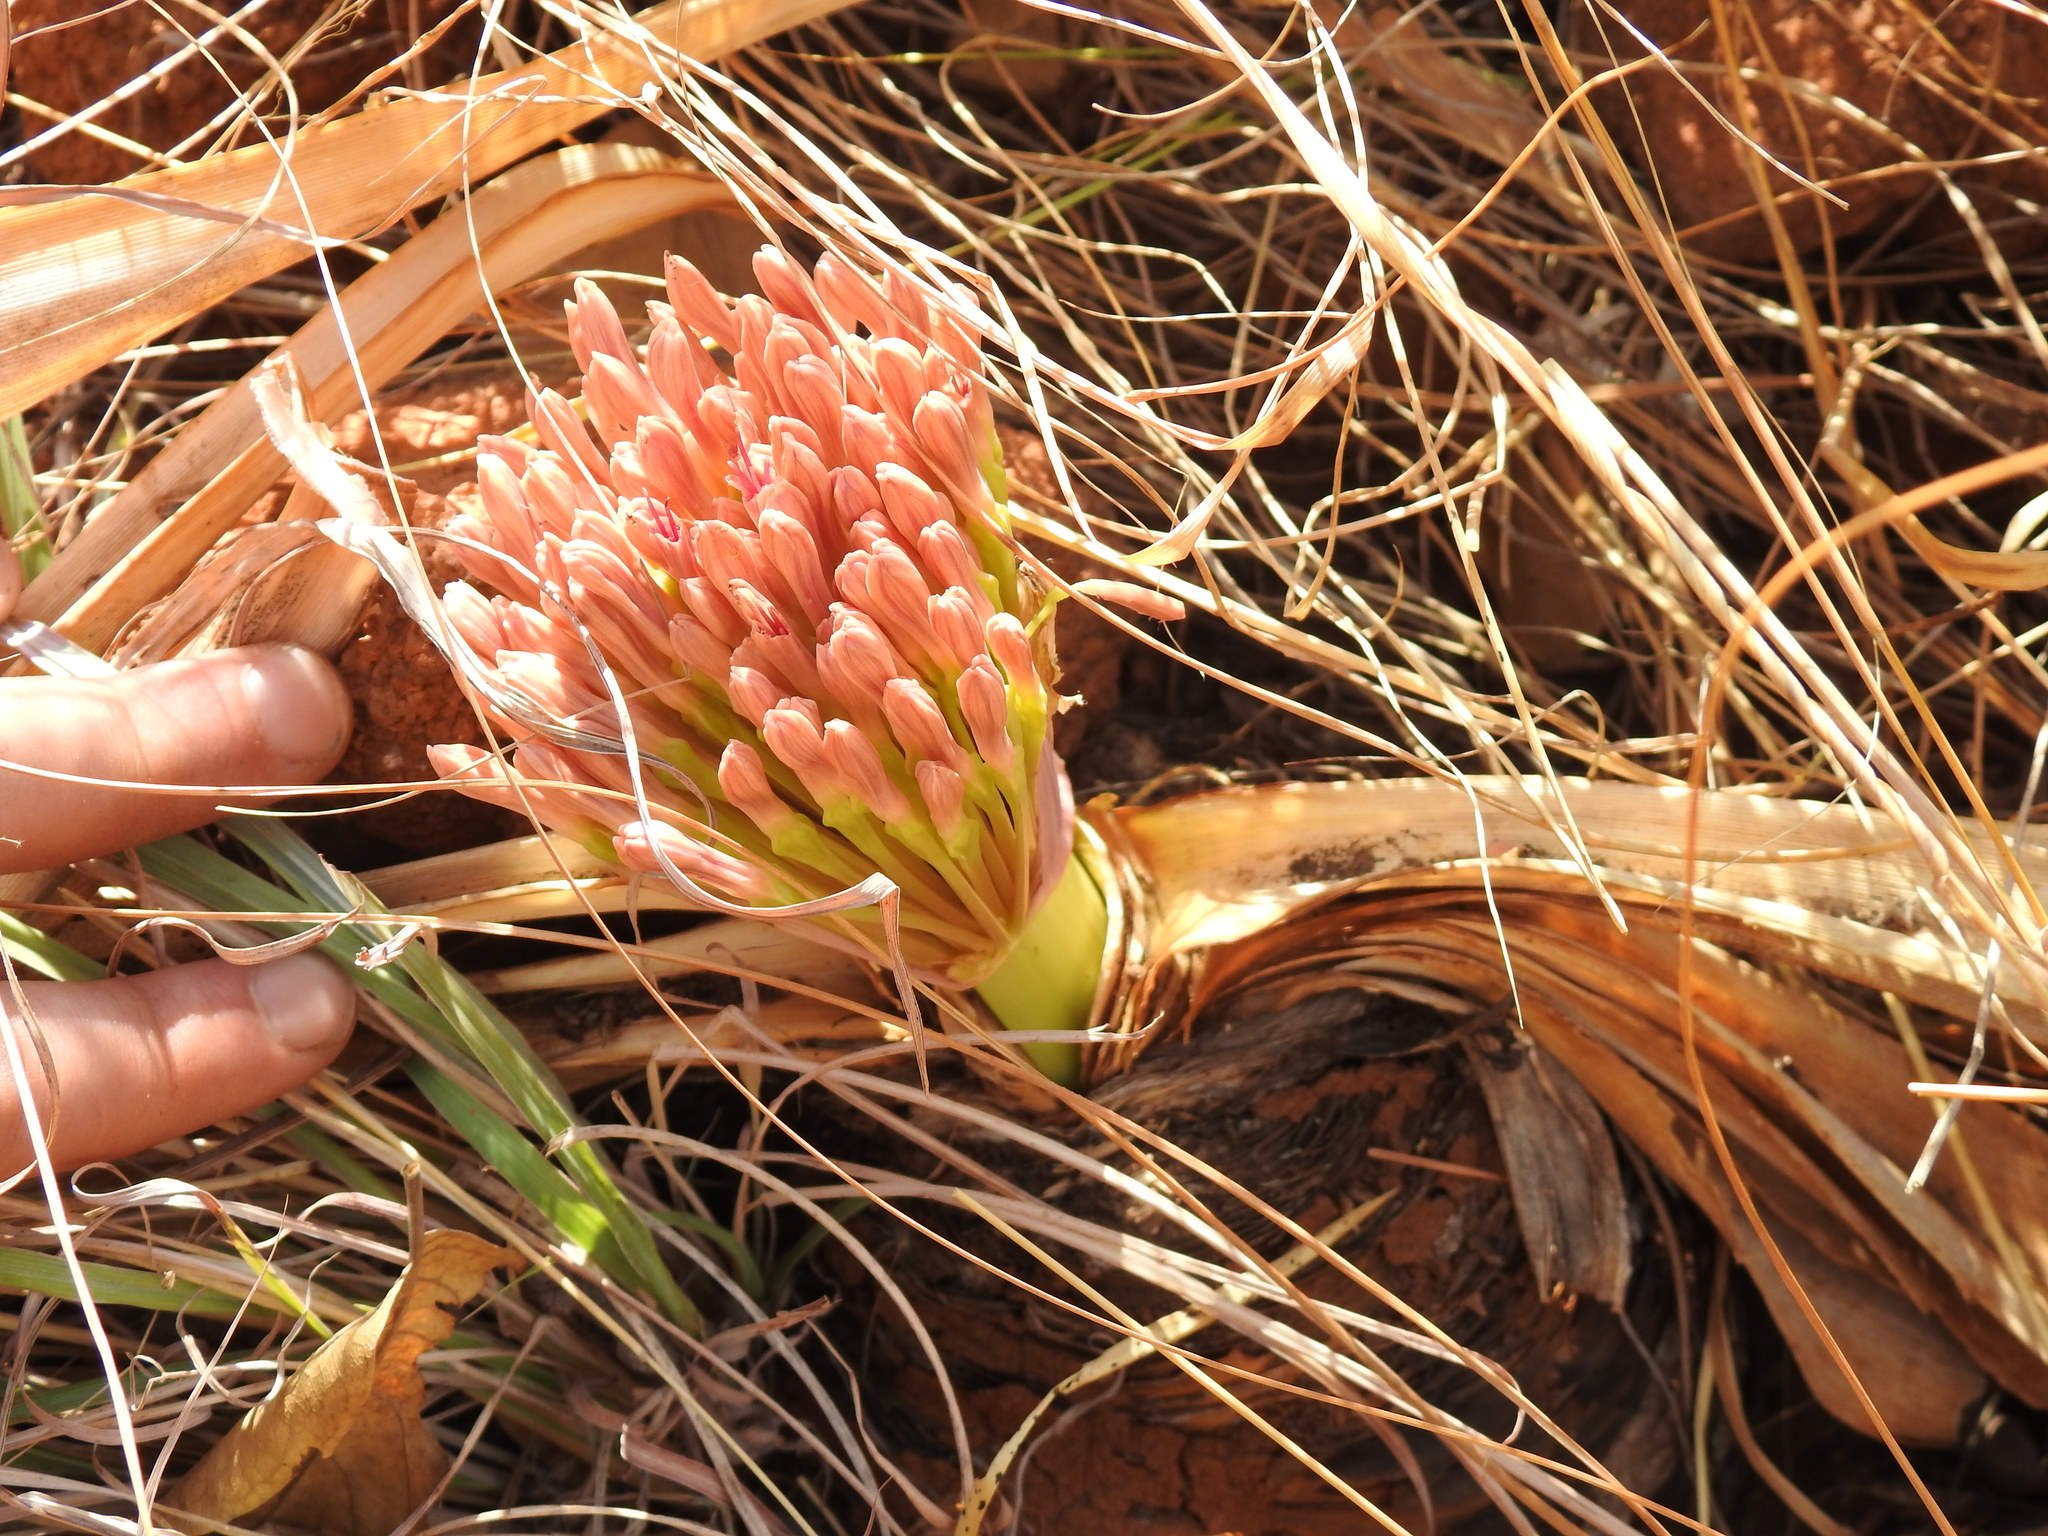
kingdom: Plantae
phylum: Tracheophyta
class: Liliopsida
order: Asparagales
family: Amaryllidaceae
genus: Boophone
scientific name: Boophone disticha
